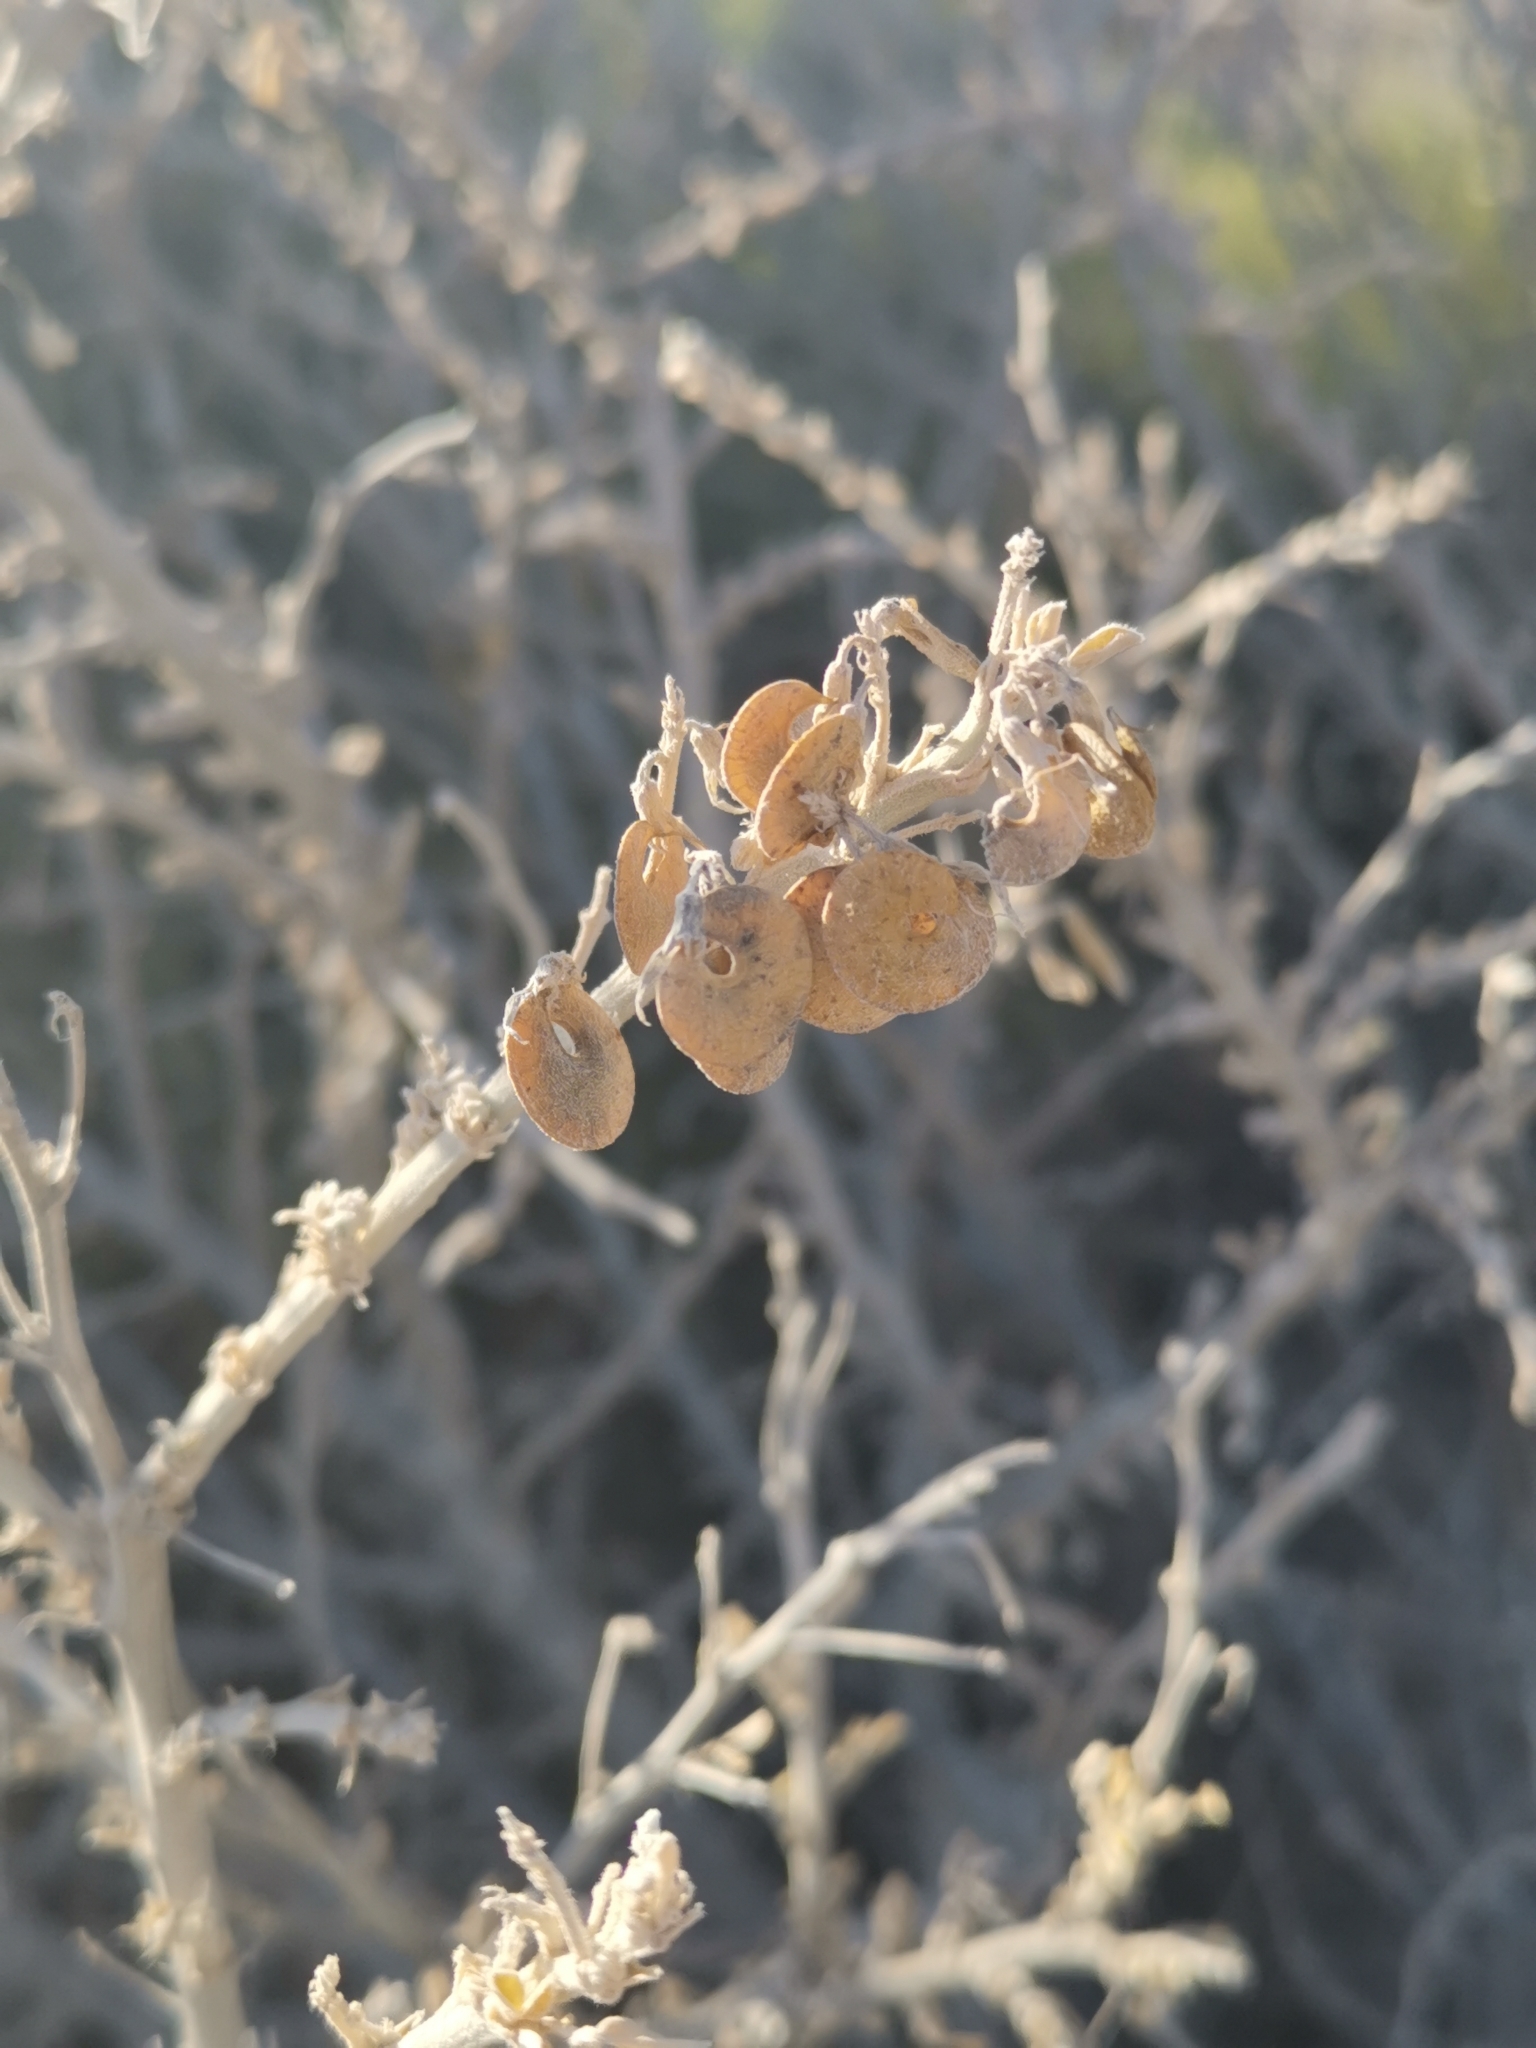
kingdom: Plantae
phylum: Tracheophyta
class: Magnoliopsida
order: Fabales
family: Fabaceae
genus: Medicago
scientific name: Medicago arborea
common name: Moon trefoil
